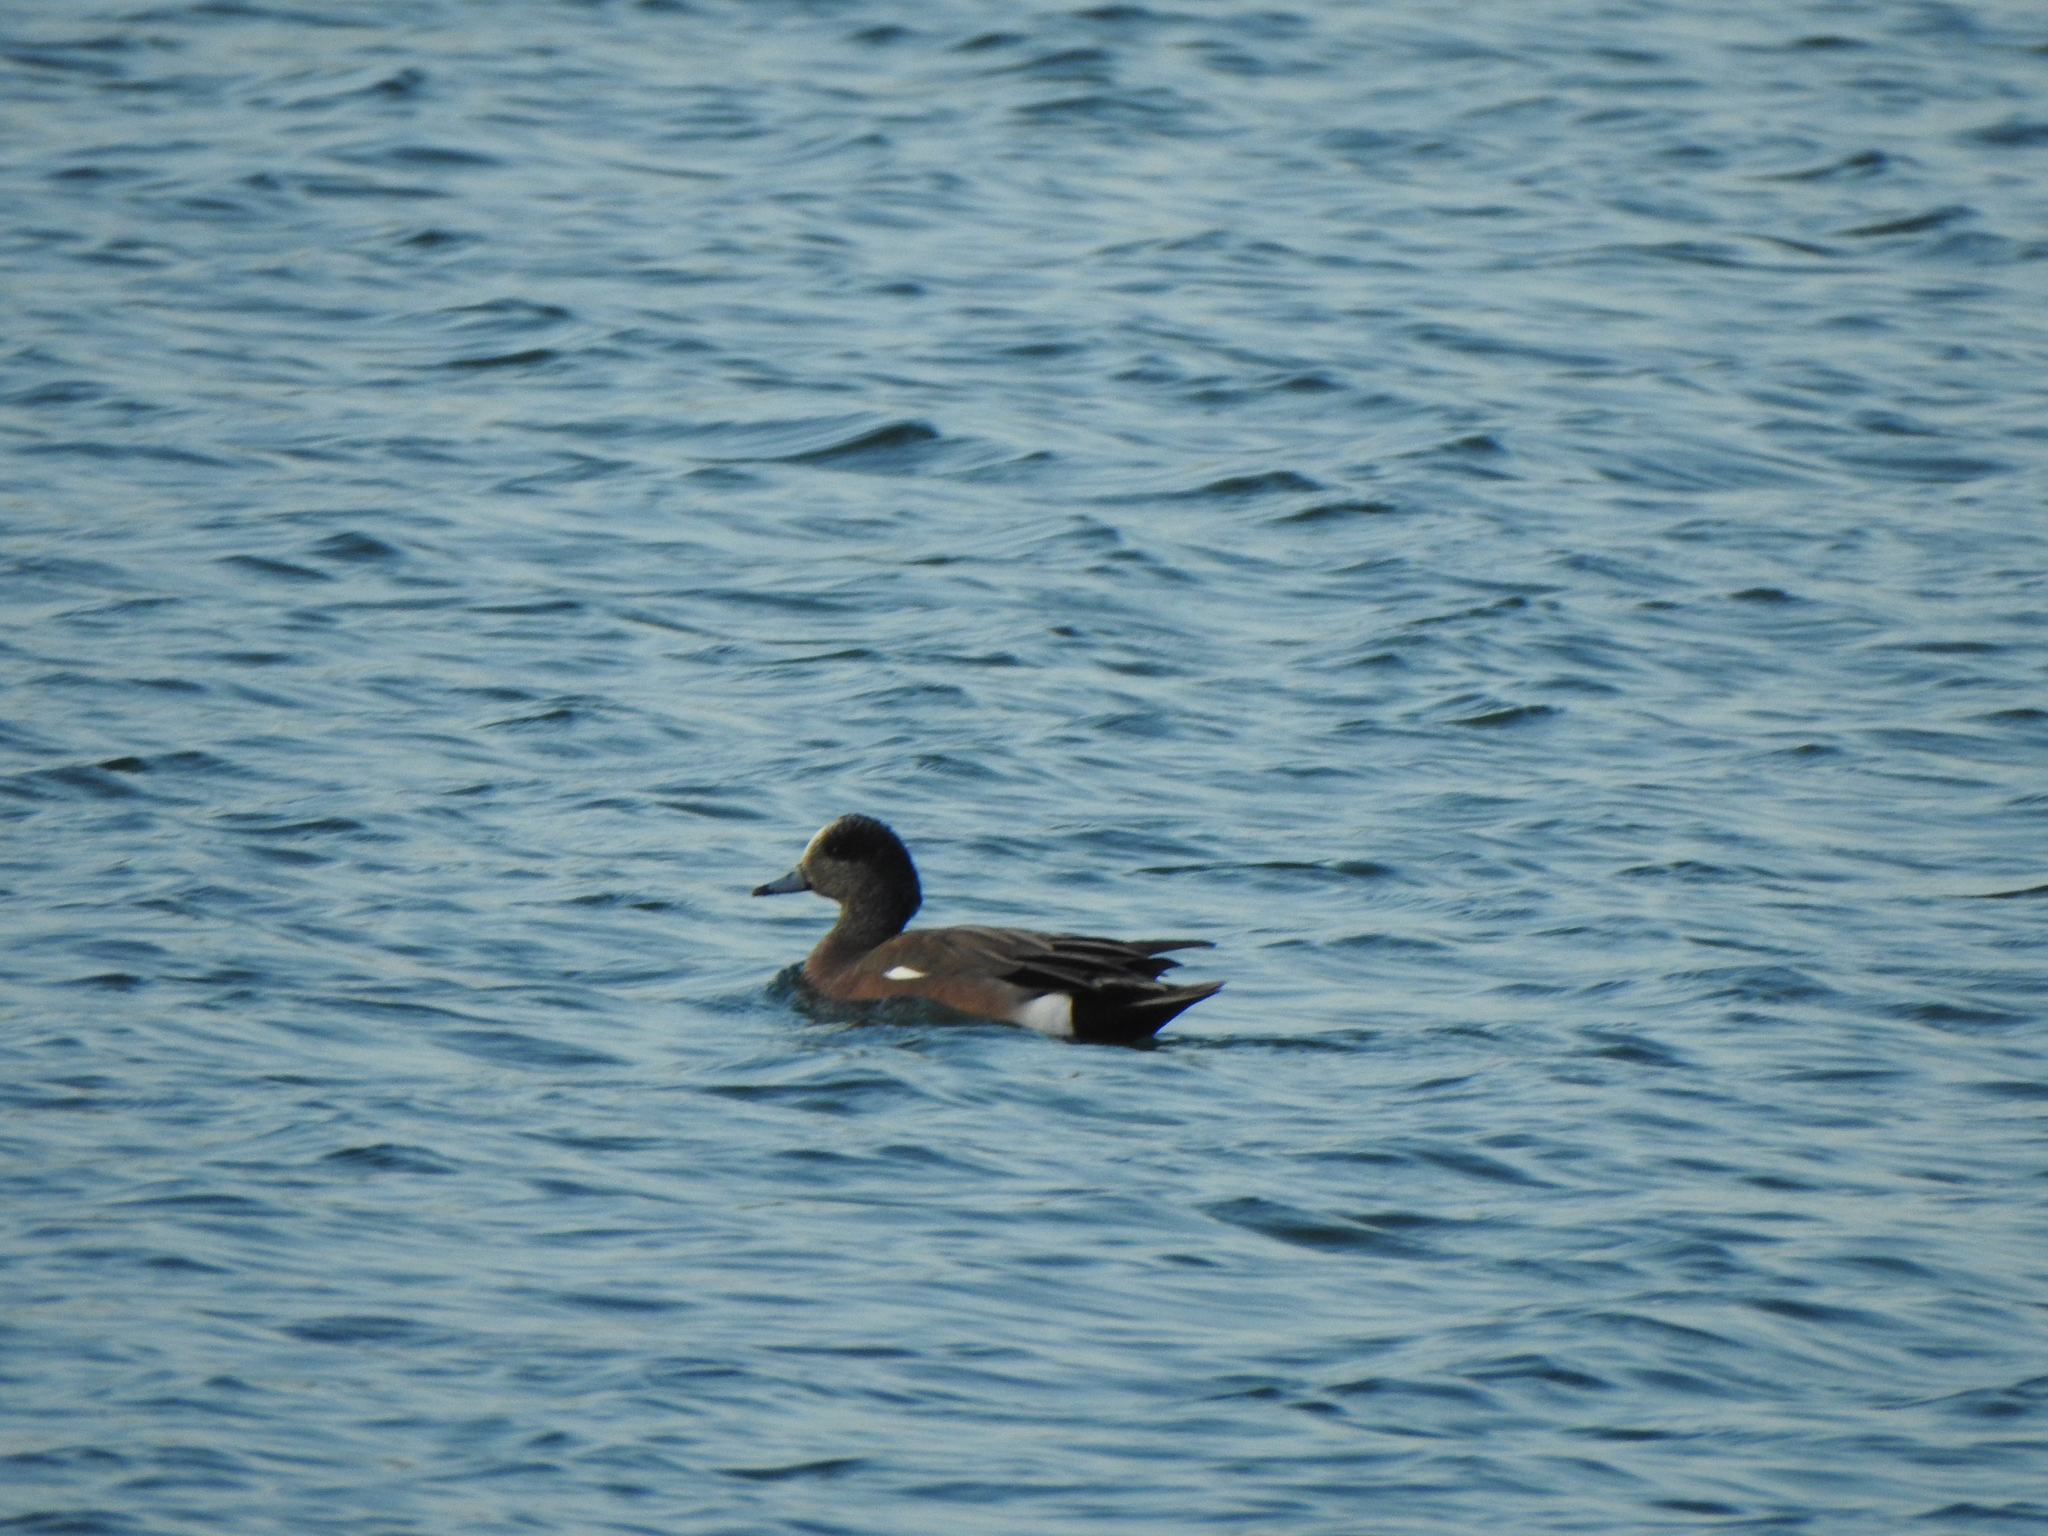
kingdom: Animalia
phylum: Chordata
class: Aves
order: Anseriformes
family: Anatidae
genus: Mareca
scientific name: Mareca americana
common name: American wigeon
